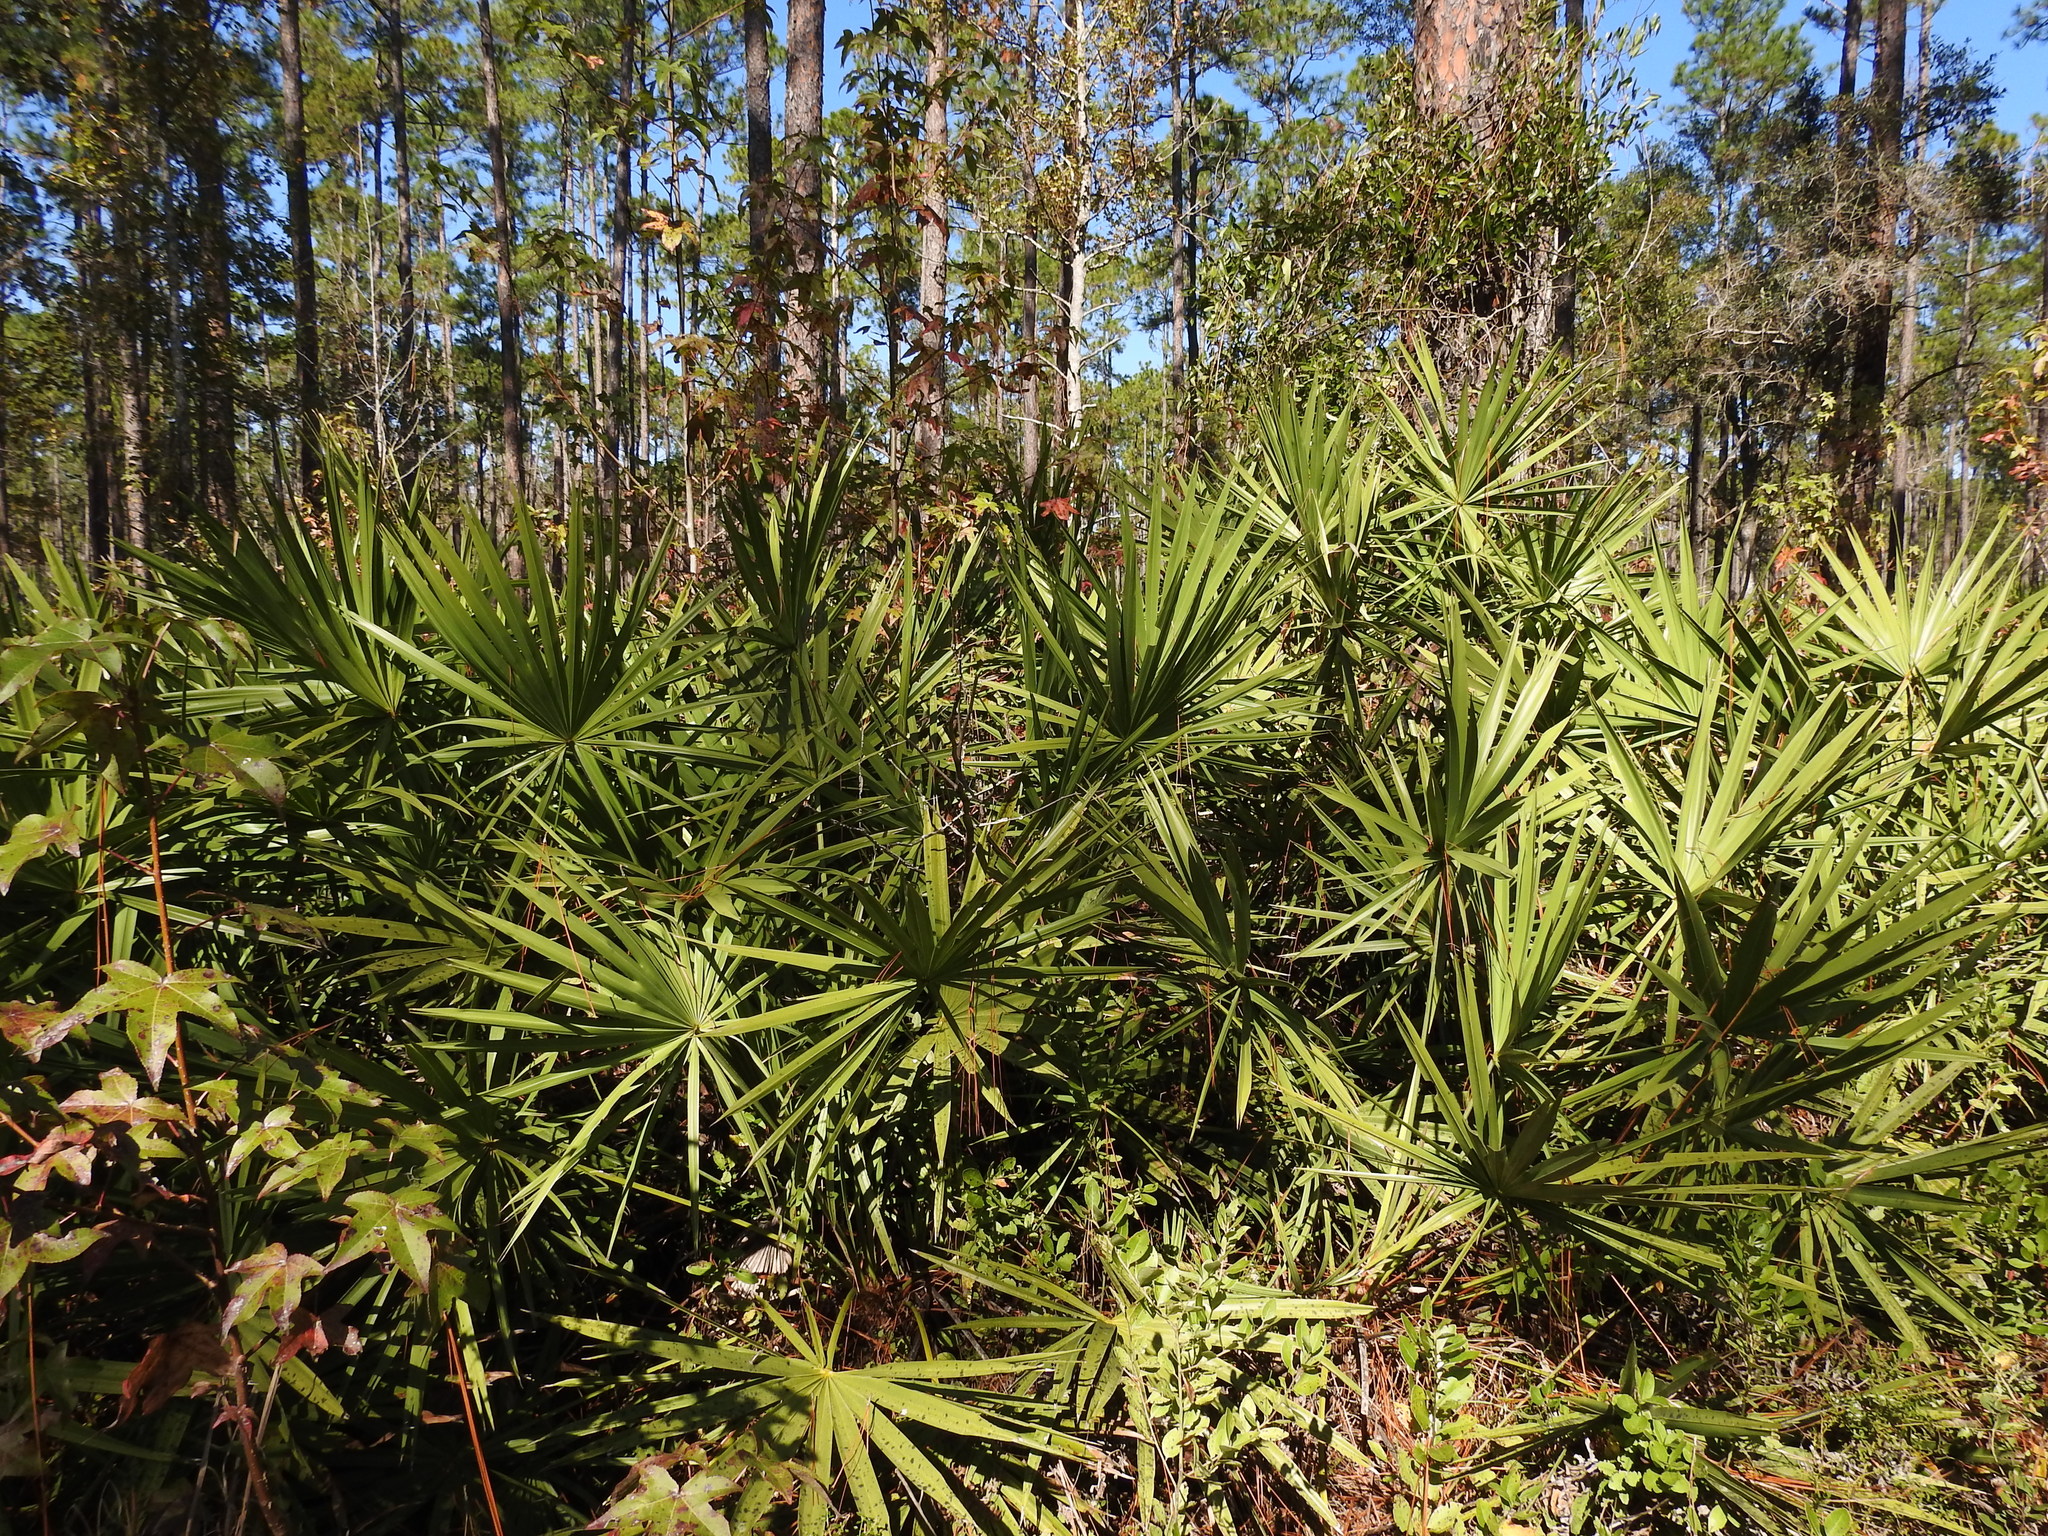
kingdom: Plantae
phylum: Tracheophyta
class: Liliopsida
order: Arecales
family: Arecaceae
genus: Serenoa
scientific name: Serenoa repens
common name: Saw-palmetto
